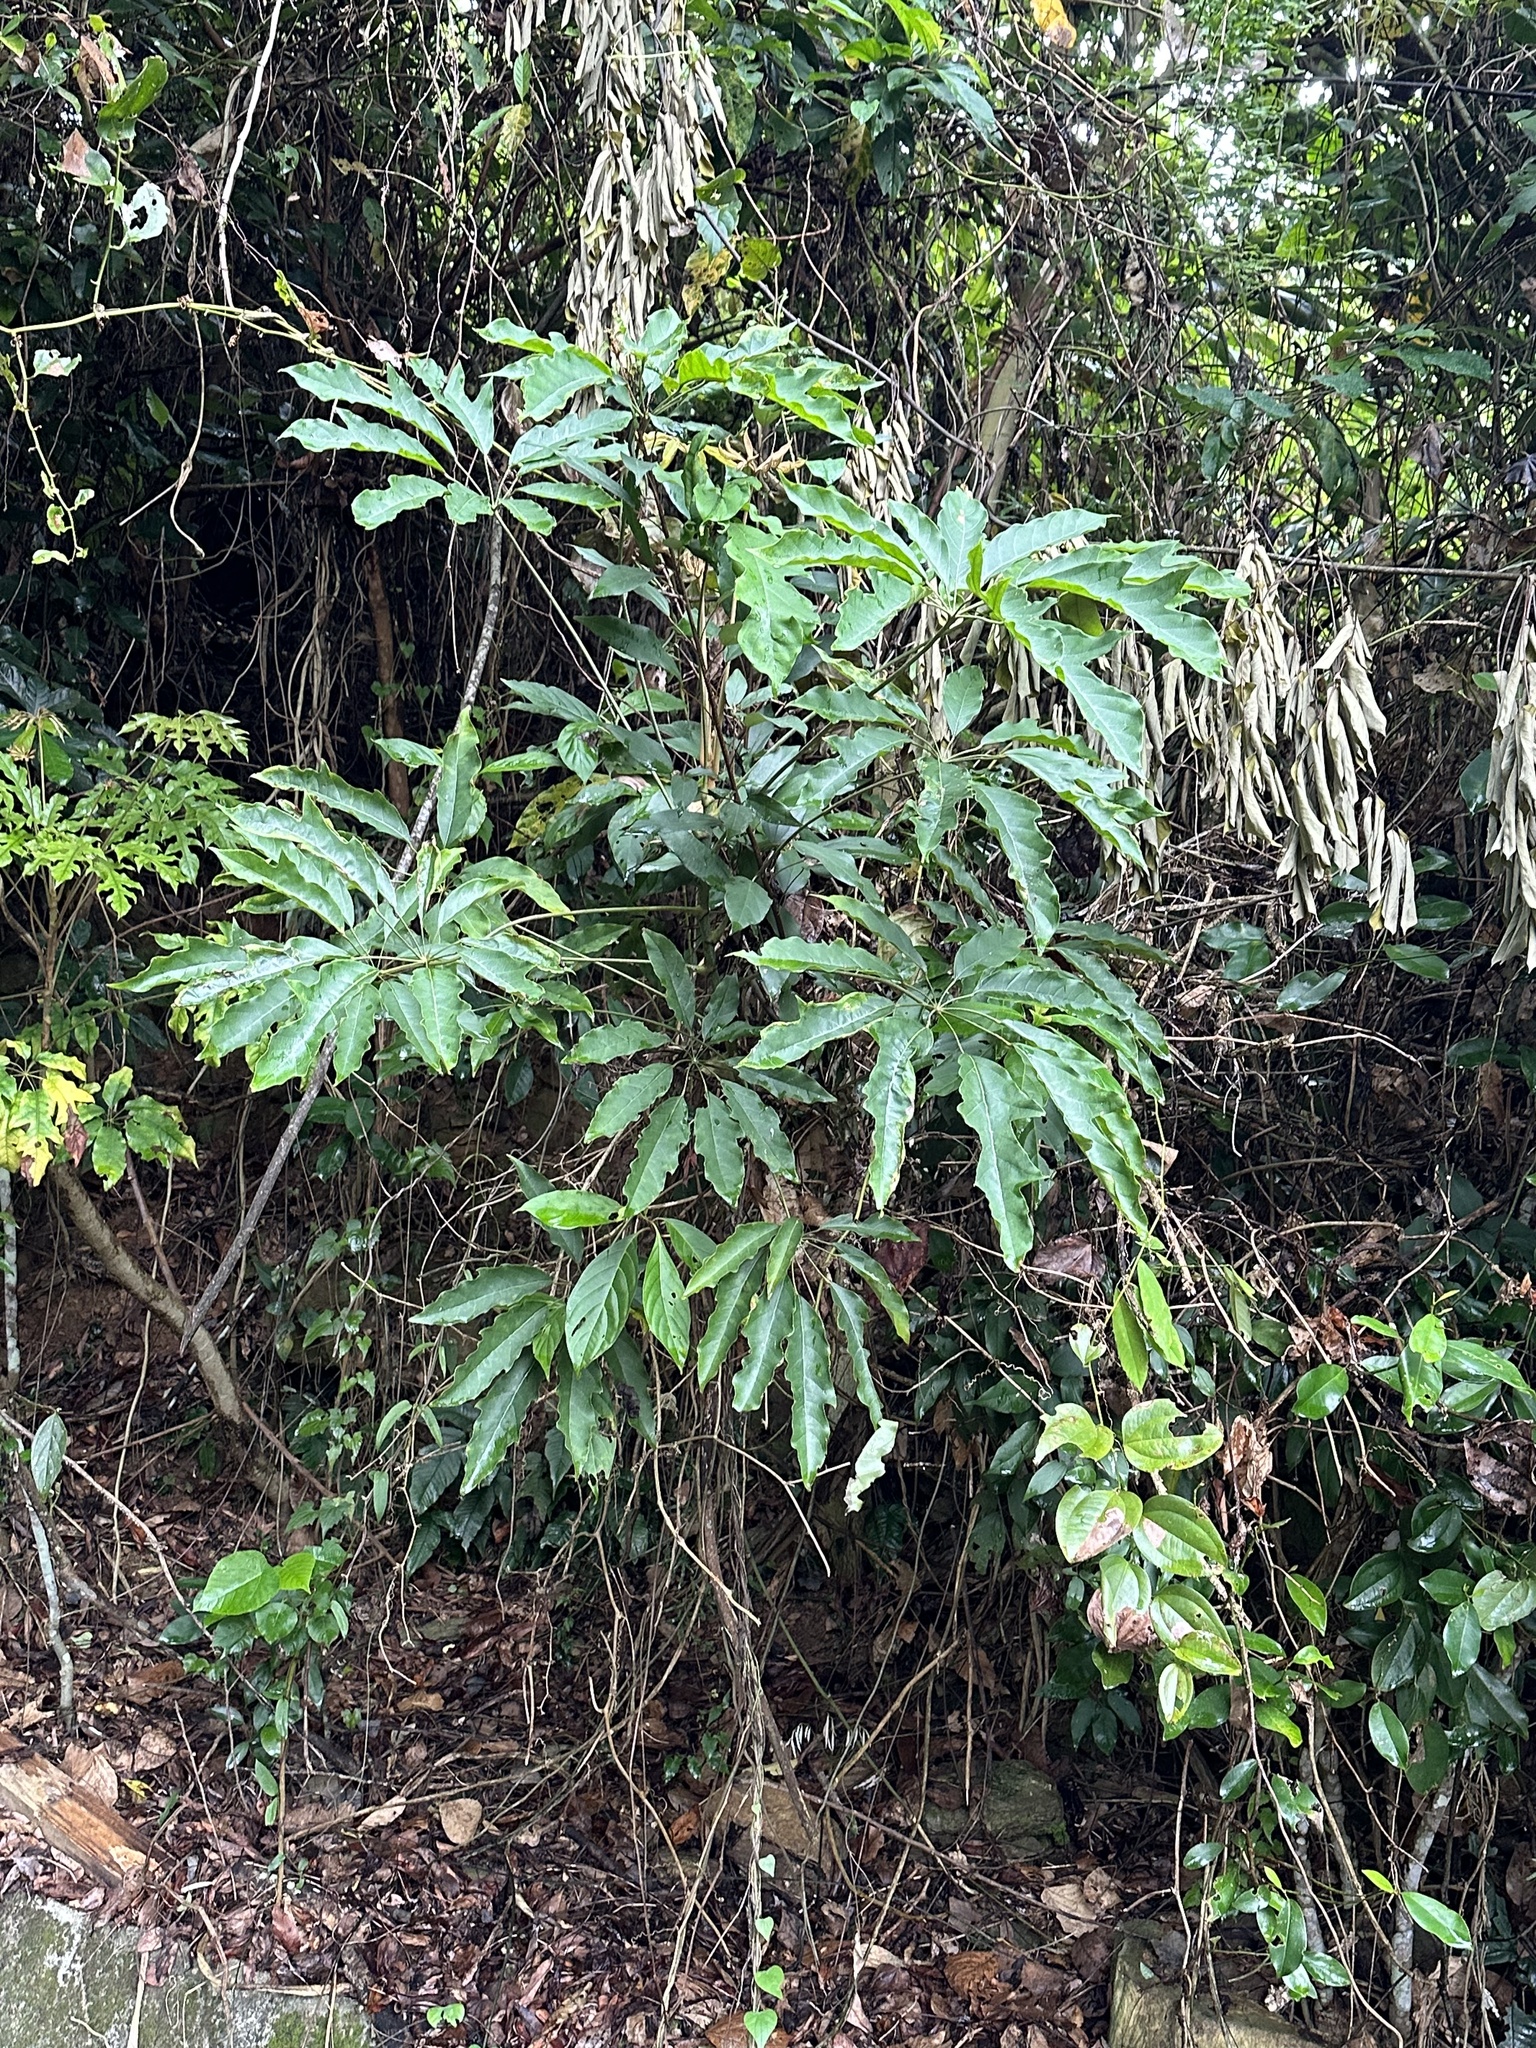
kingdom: Plantae
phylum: Tracheophyta
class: Magnoliopsida
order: Apiales
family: Araliaceae
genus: Heptapleurum
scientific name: Heptapleurum heptaphyllum
